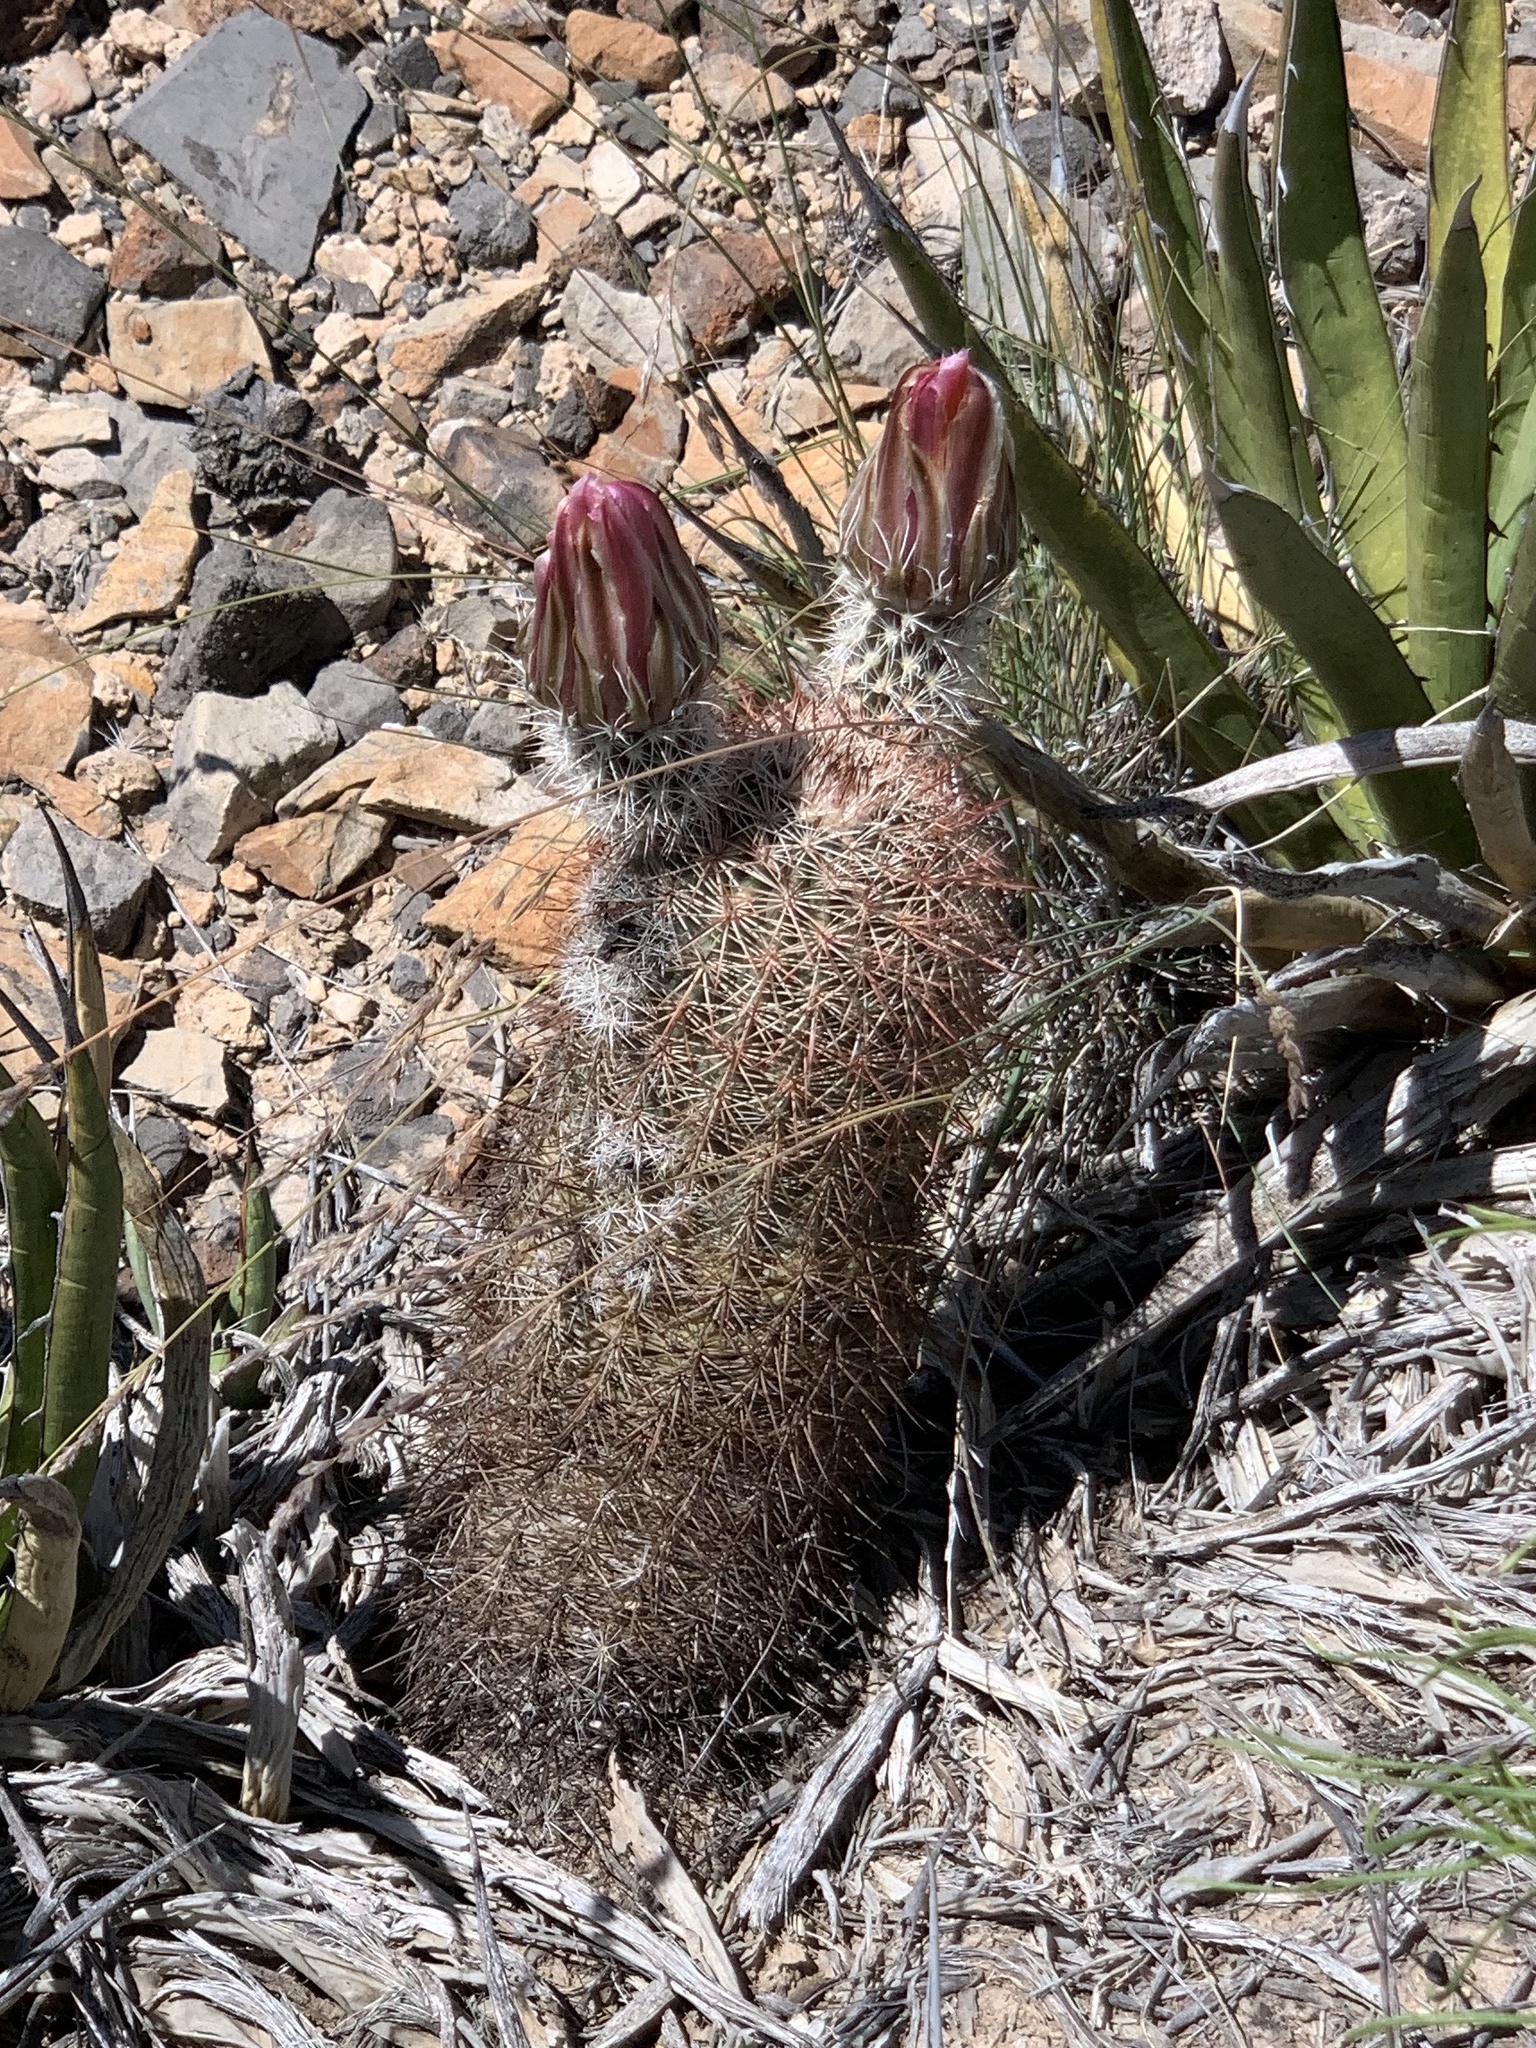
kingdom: Plantae
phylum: Tracheophyta
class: Magnoliopsida
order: Caryophyllales
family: Cactaceae
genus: Echinocereus
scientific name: Echinocereus dasyacanthus
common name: Spiny hedgehog cactus
